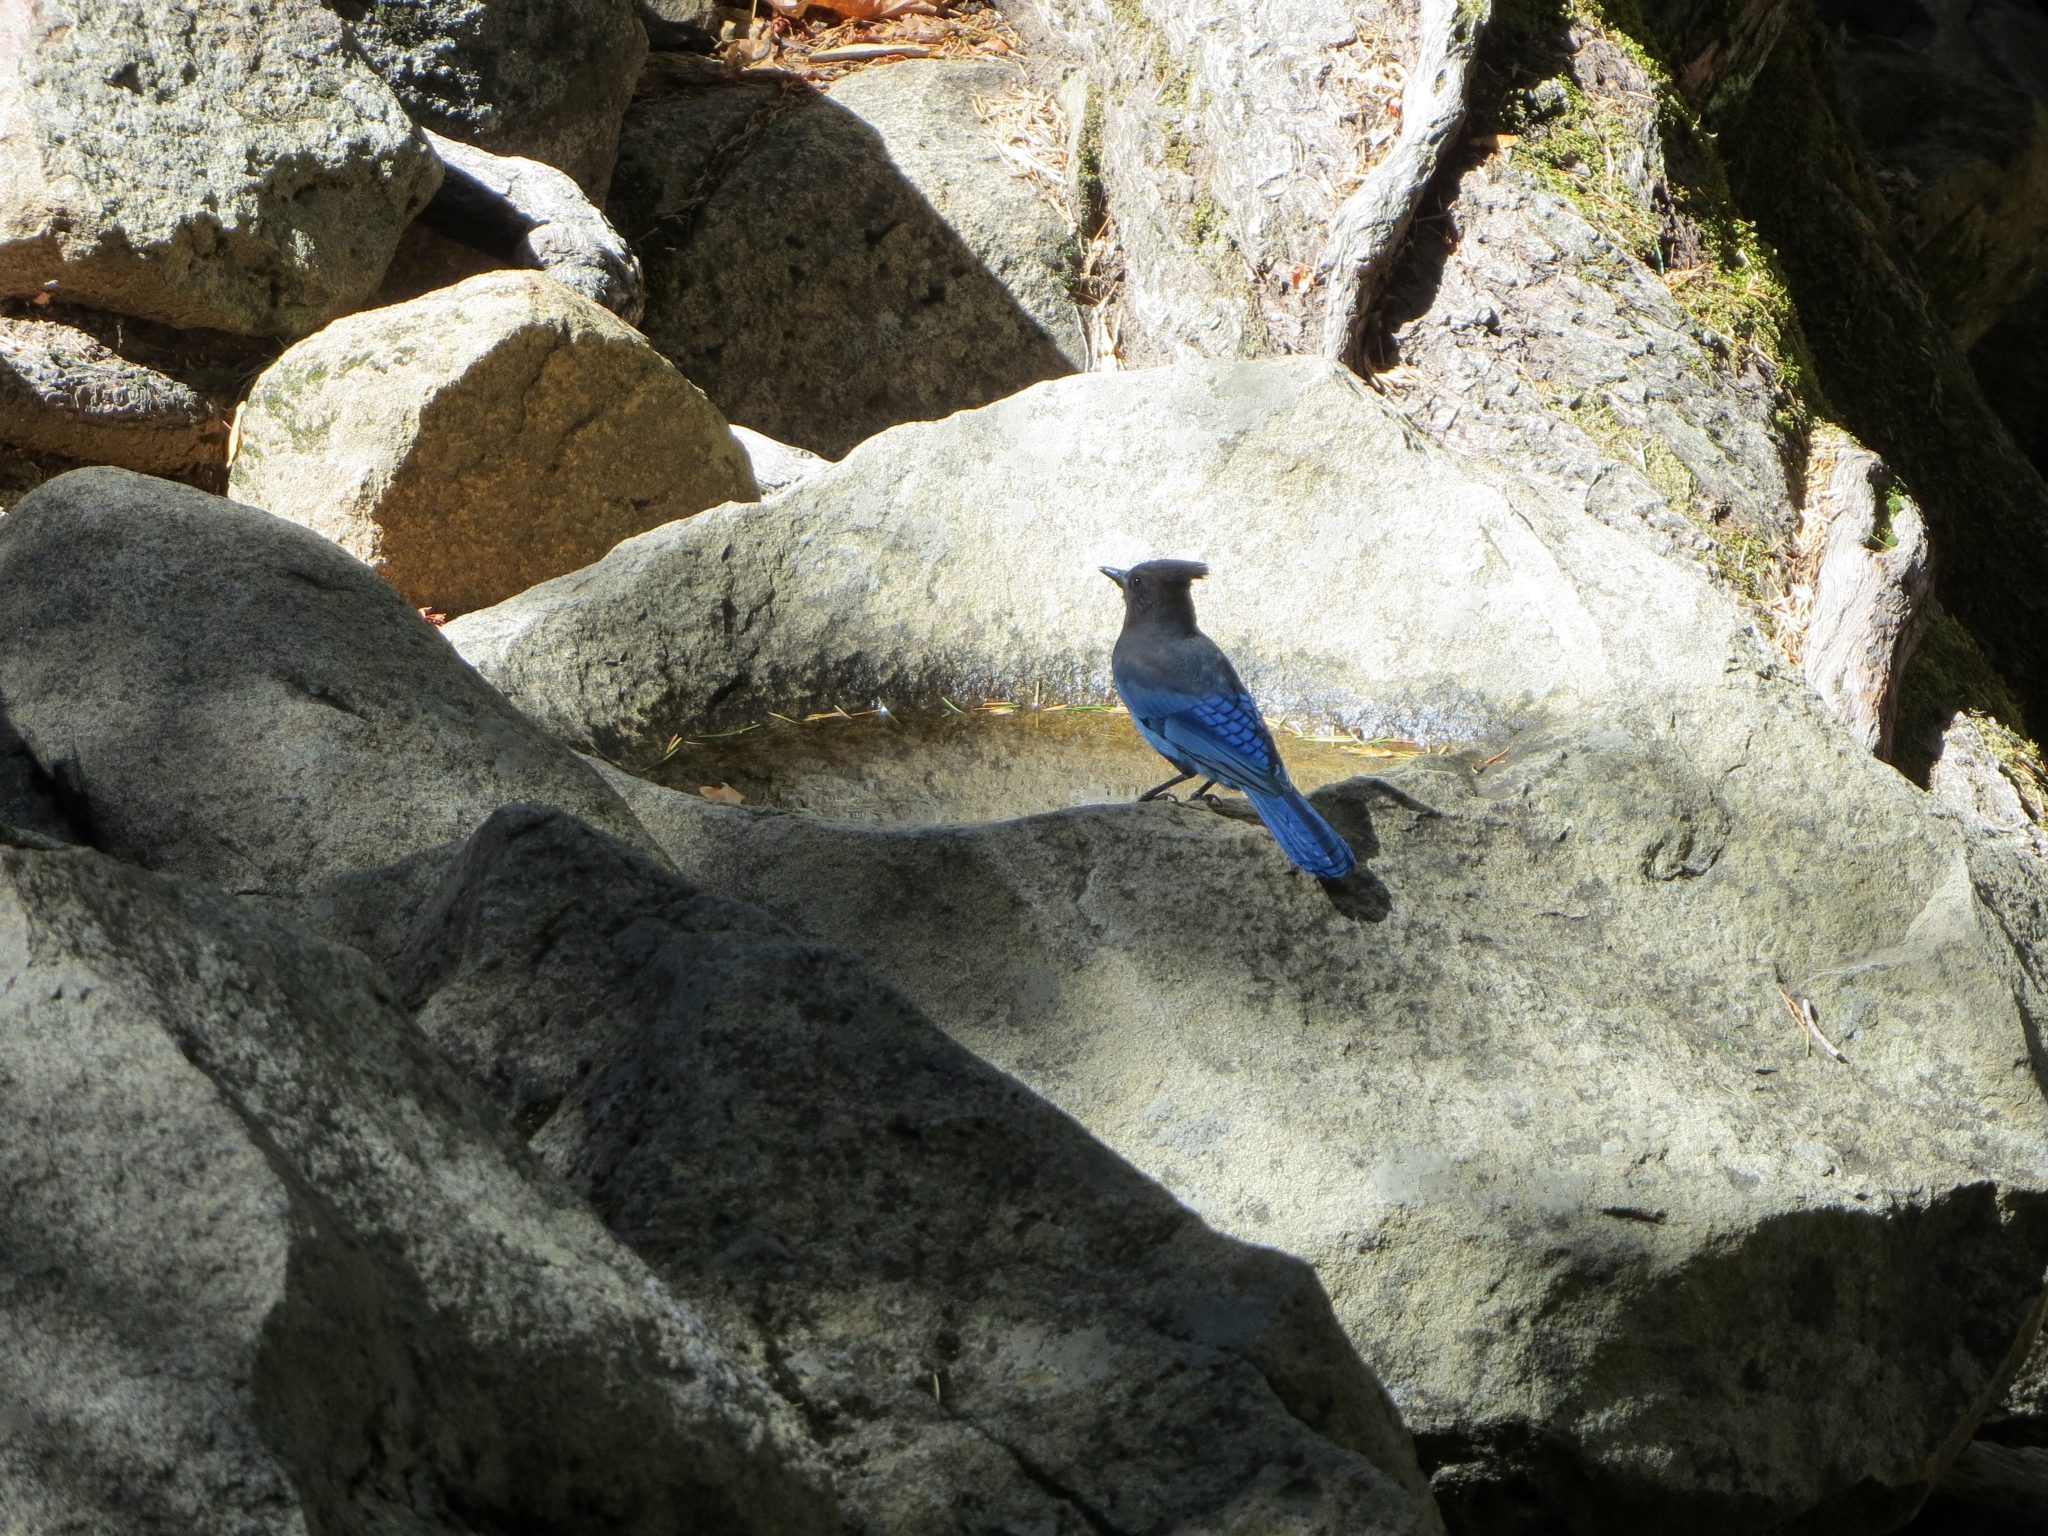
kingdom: Animalia
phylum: Chordata
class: Aves
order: Passeriformes
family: Corvidae
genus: Cyanocitta
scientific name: Cyanocitta stelleri
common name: Steller's jay
